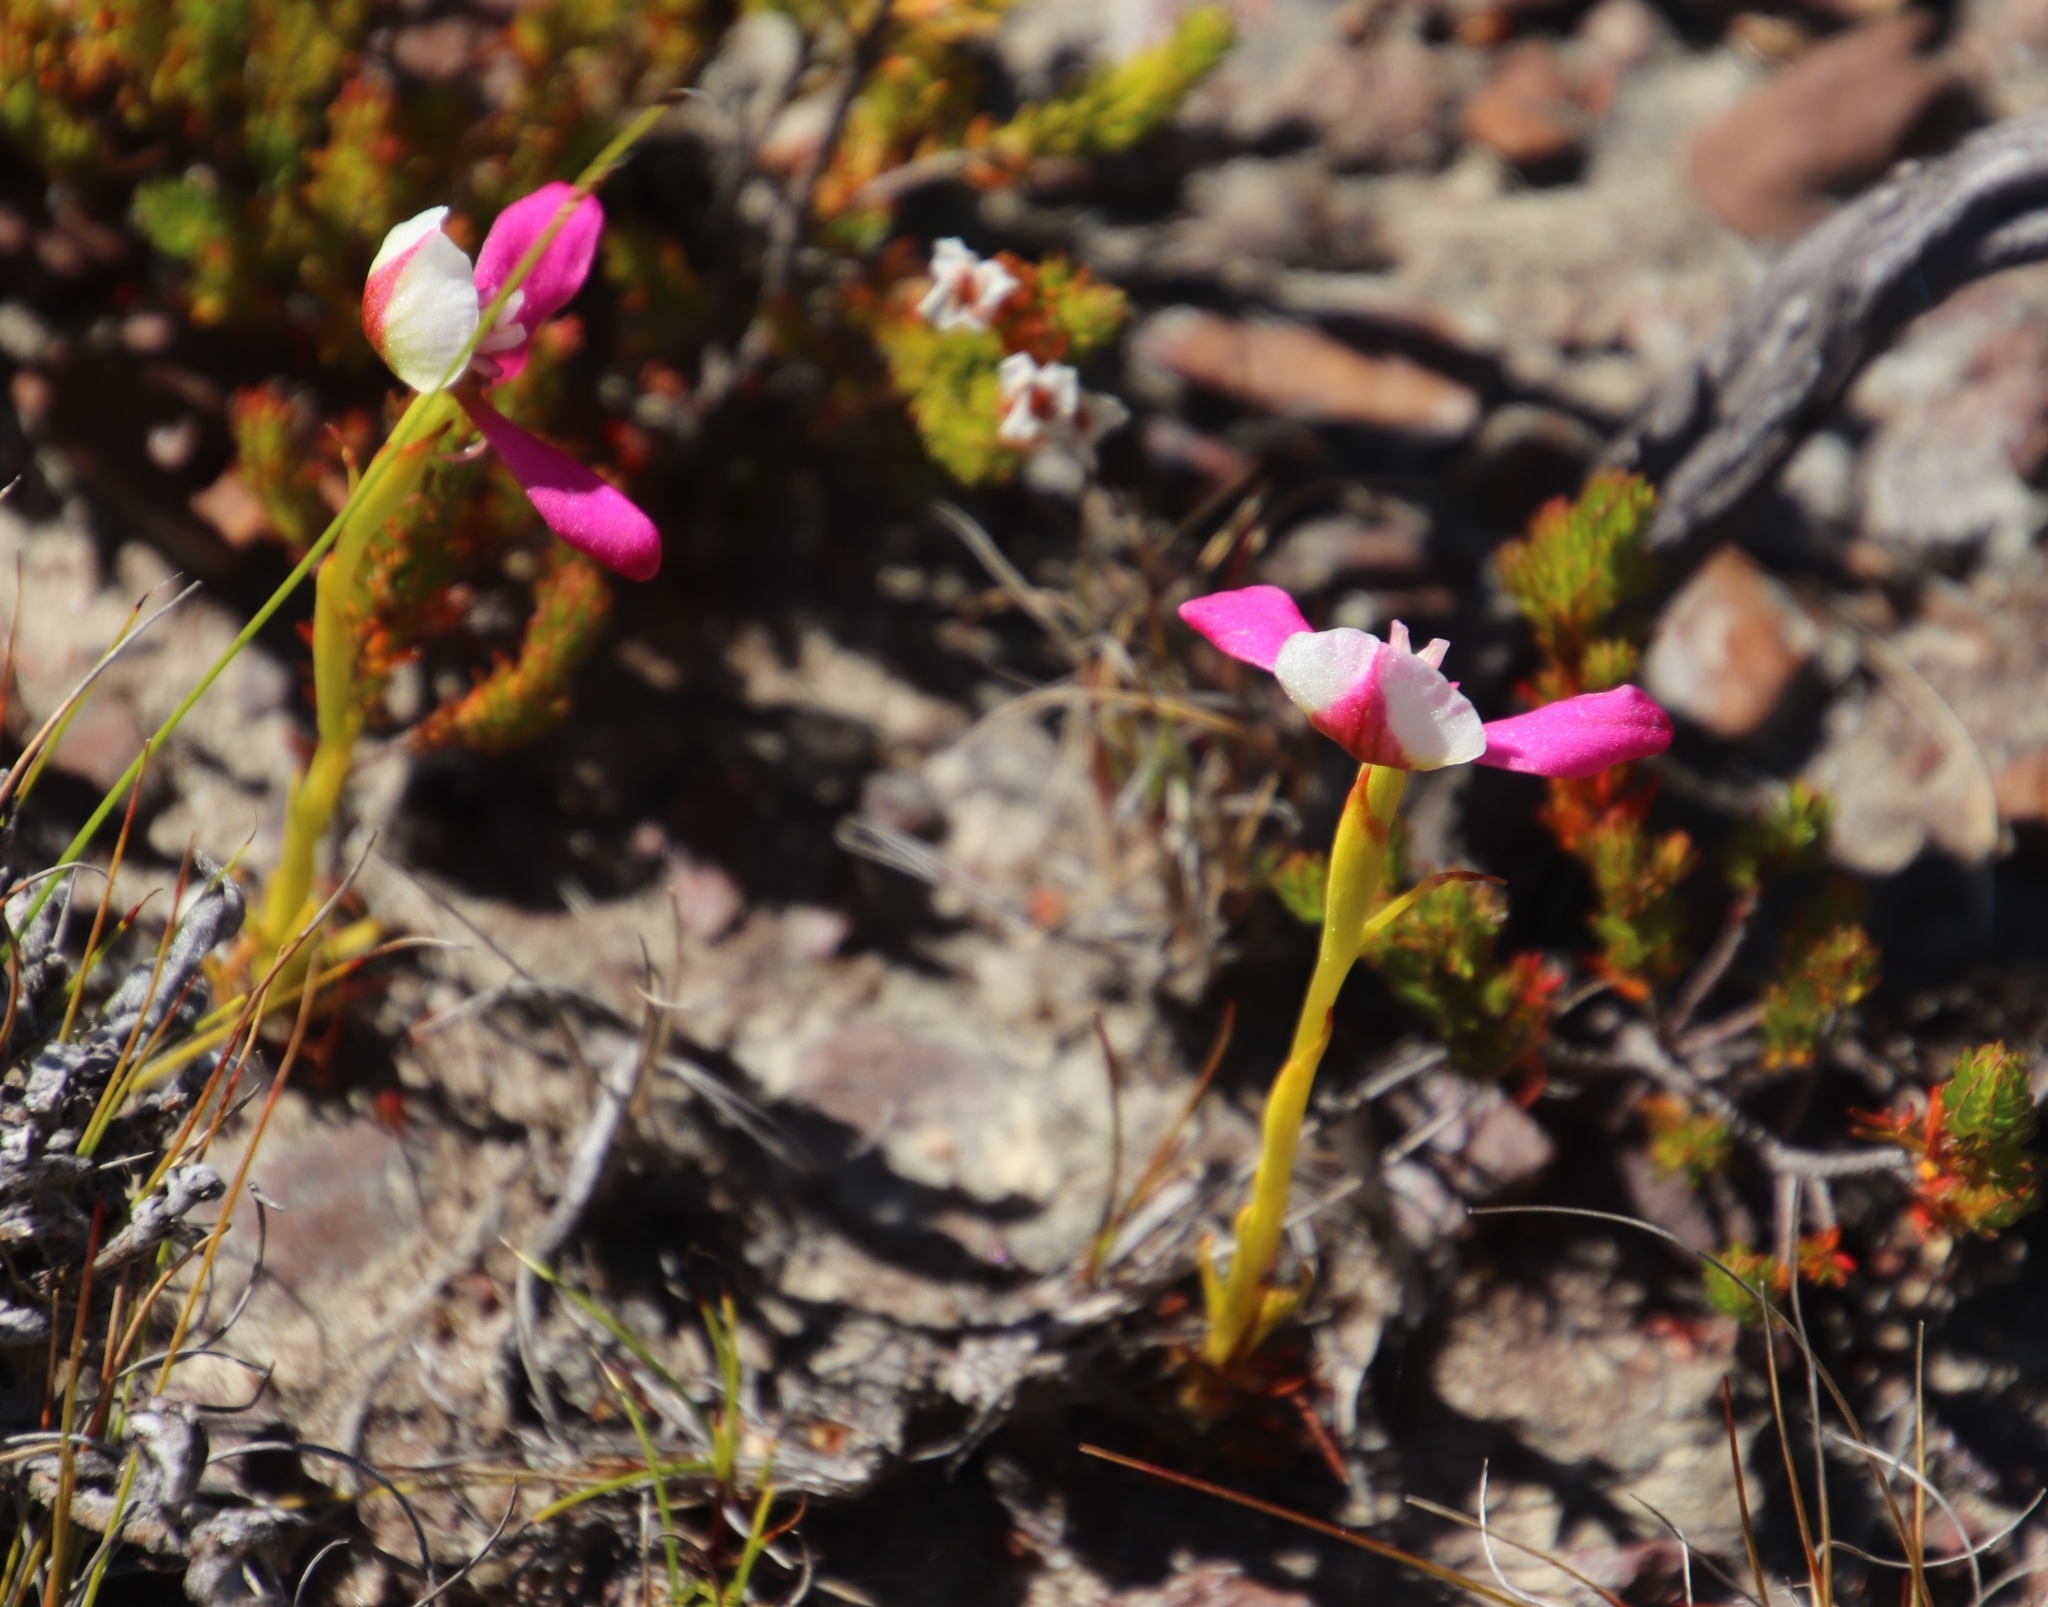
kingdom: Plantae
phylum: Tracheophyta
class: Liliopsida
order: Asparagales
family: Orchidaceae
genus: Disa
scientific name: Disa filicornis
